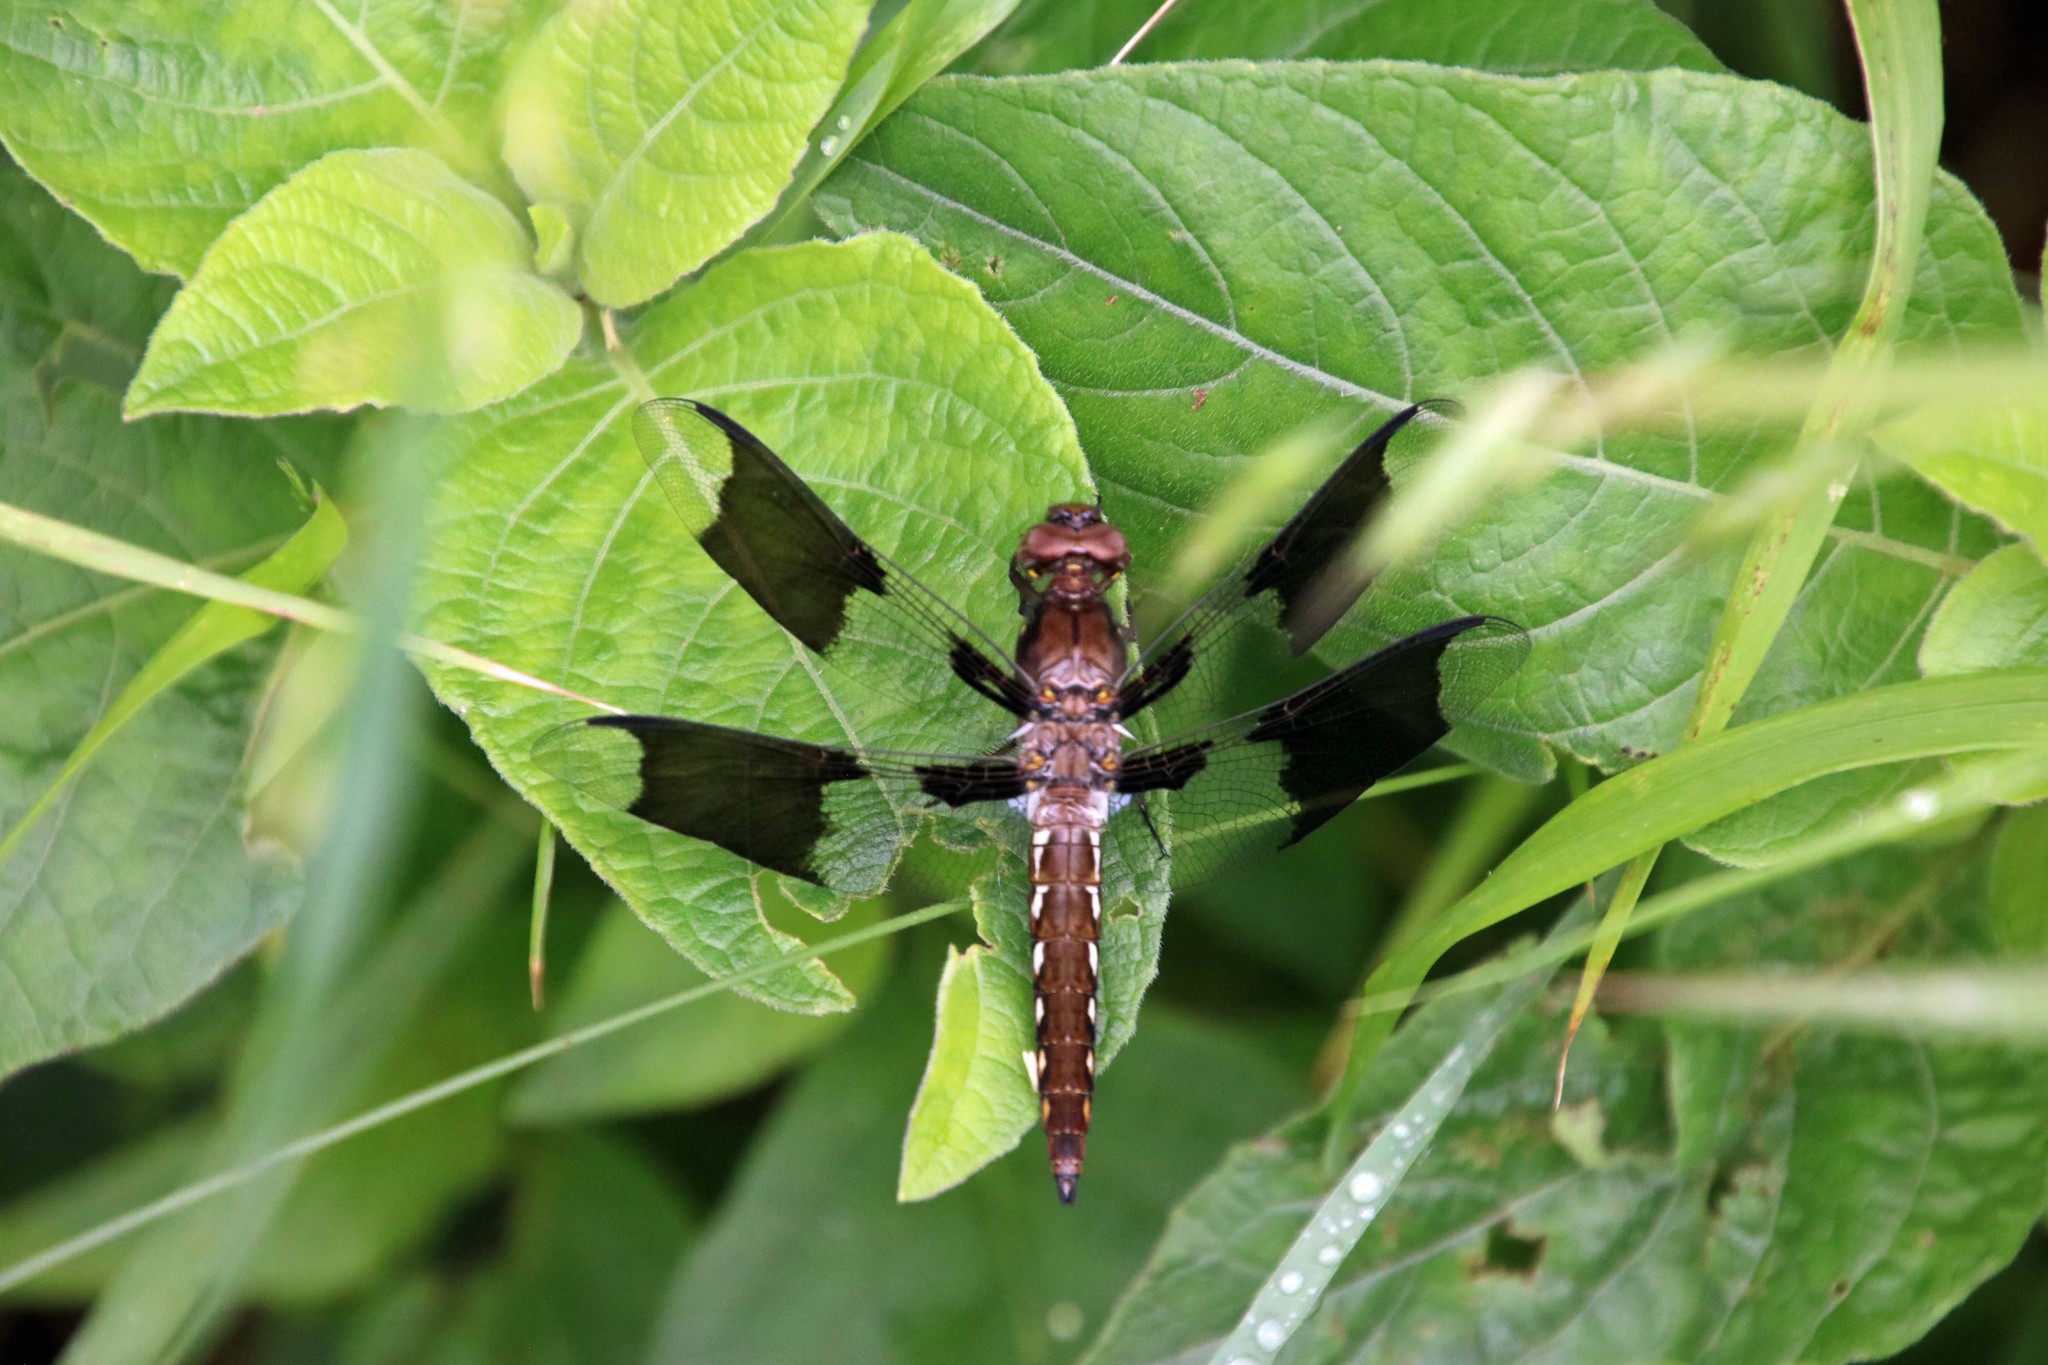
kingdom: Animalia
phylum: Arthropoda
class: Insecta
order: Odonata
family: Libellulidae
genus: Plathemis
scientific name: Plathemis lydia
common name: Common whitetail
